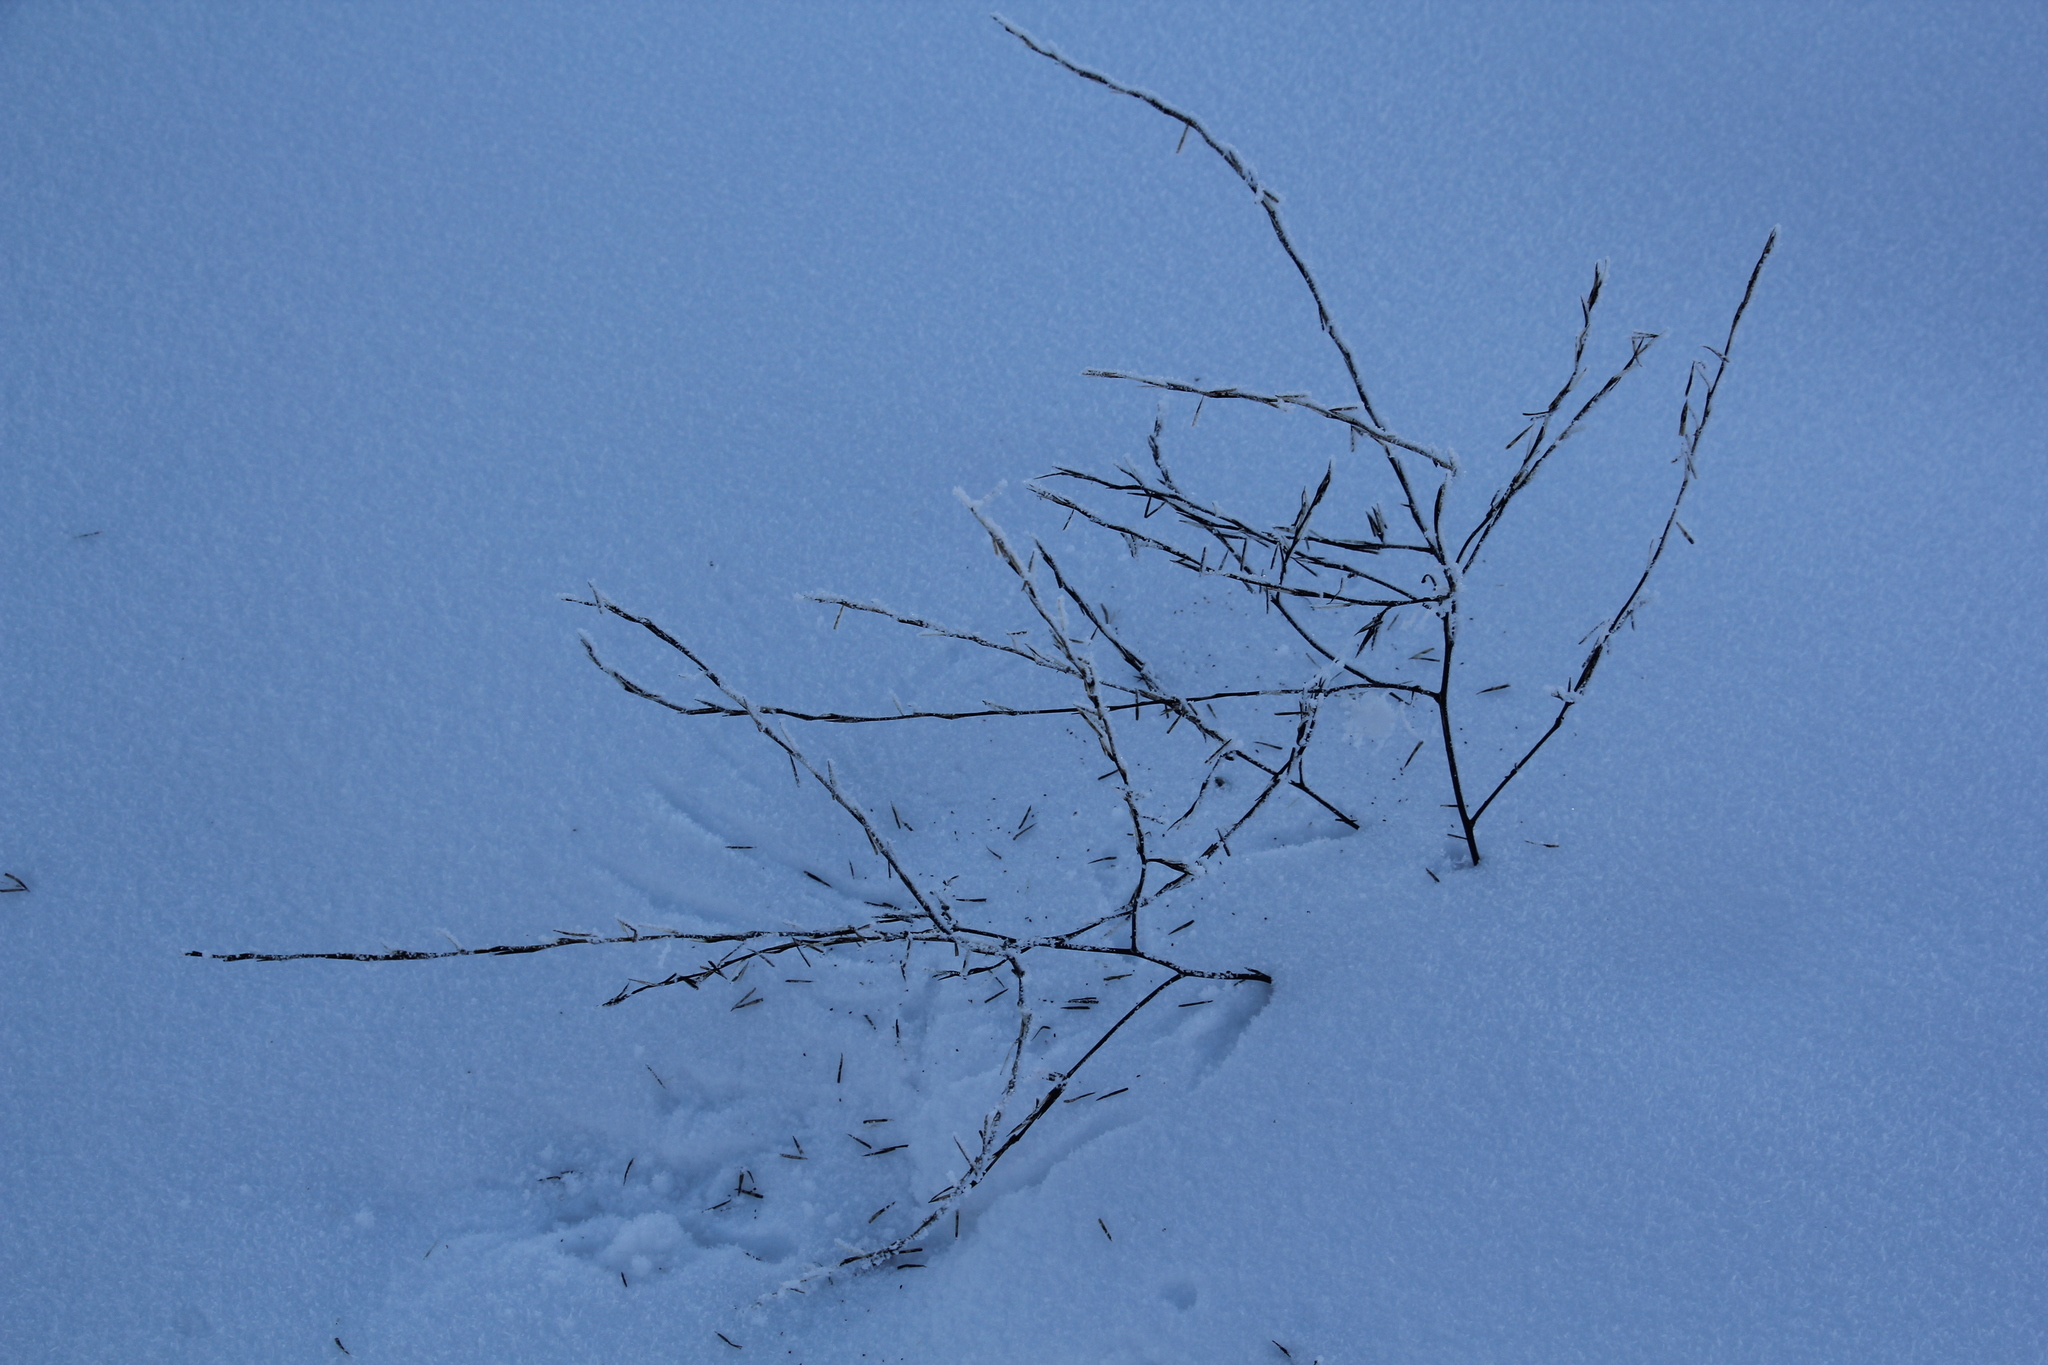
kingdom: Plantae
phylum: Tracheophyta
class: Magnoliopsida
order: Brassicales
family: Brassicaceae
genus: Sisymbrium
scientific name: Sisymbrium officinale
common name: Hedge mustard
